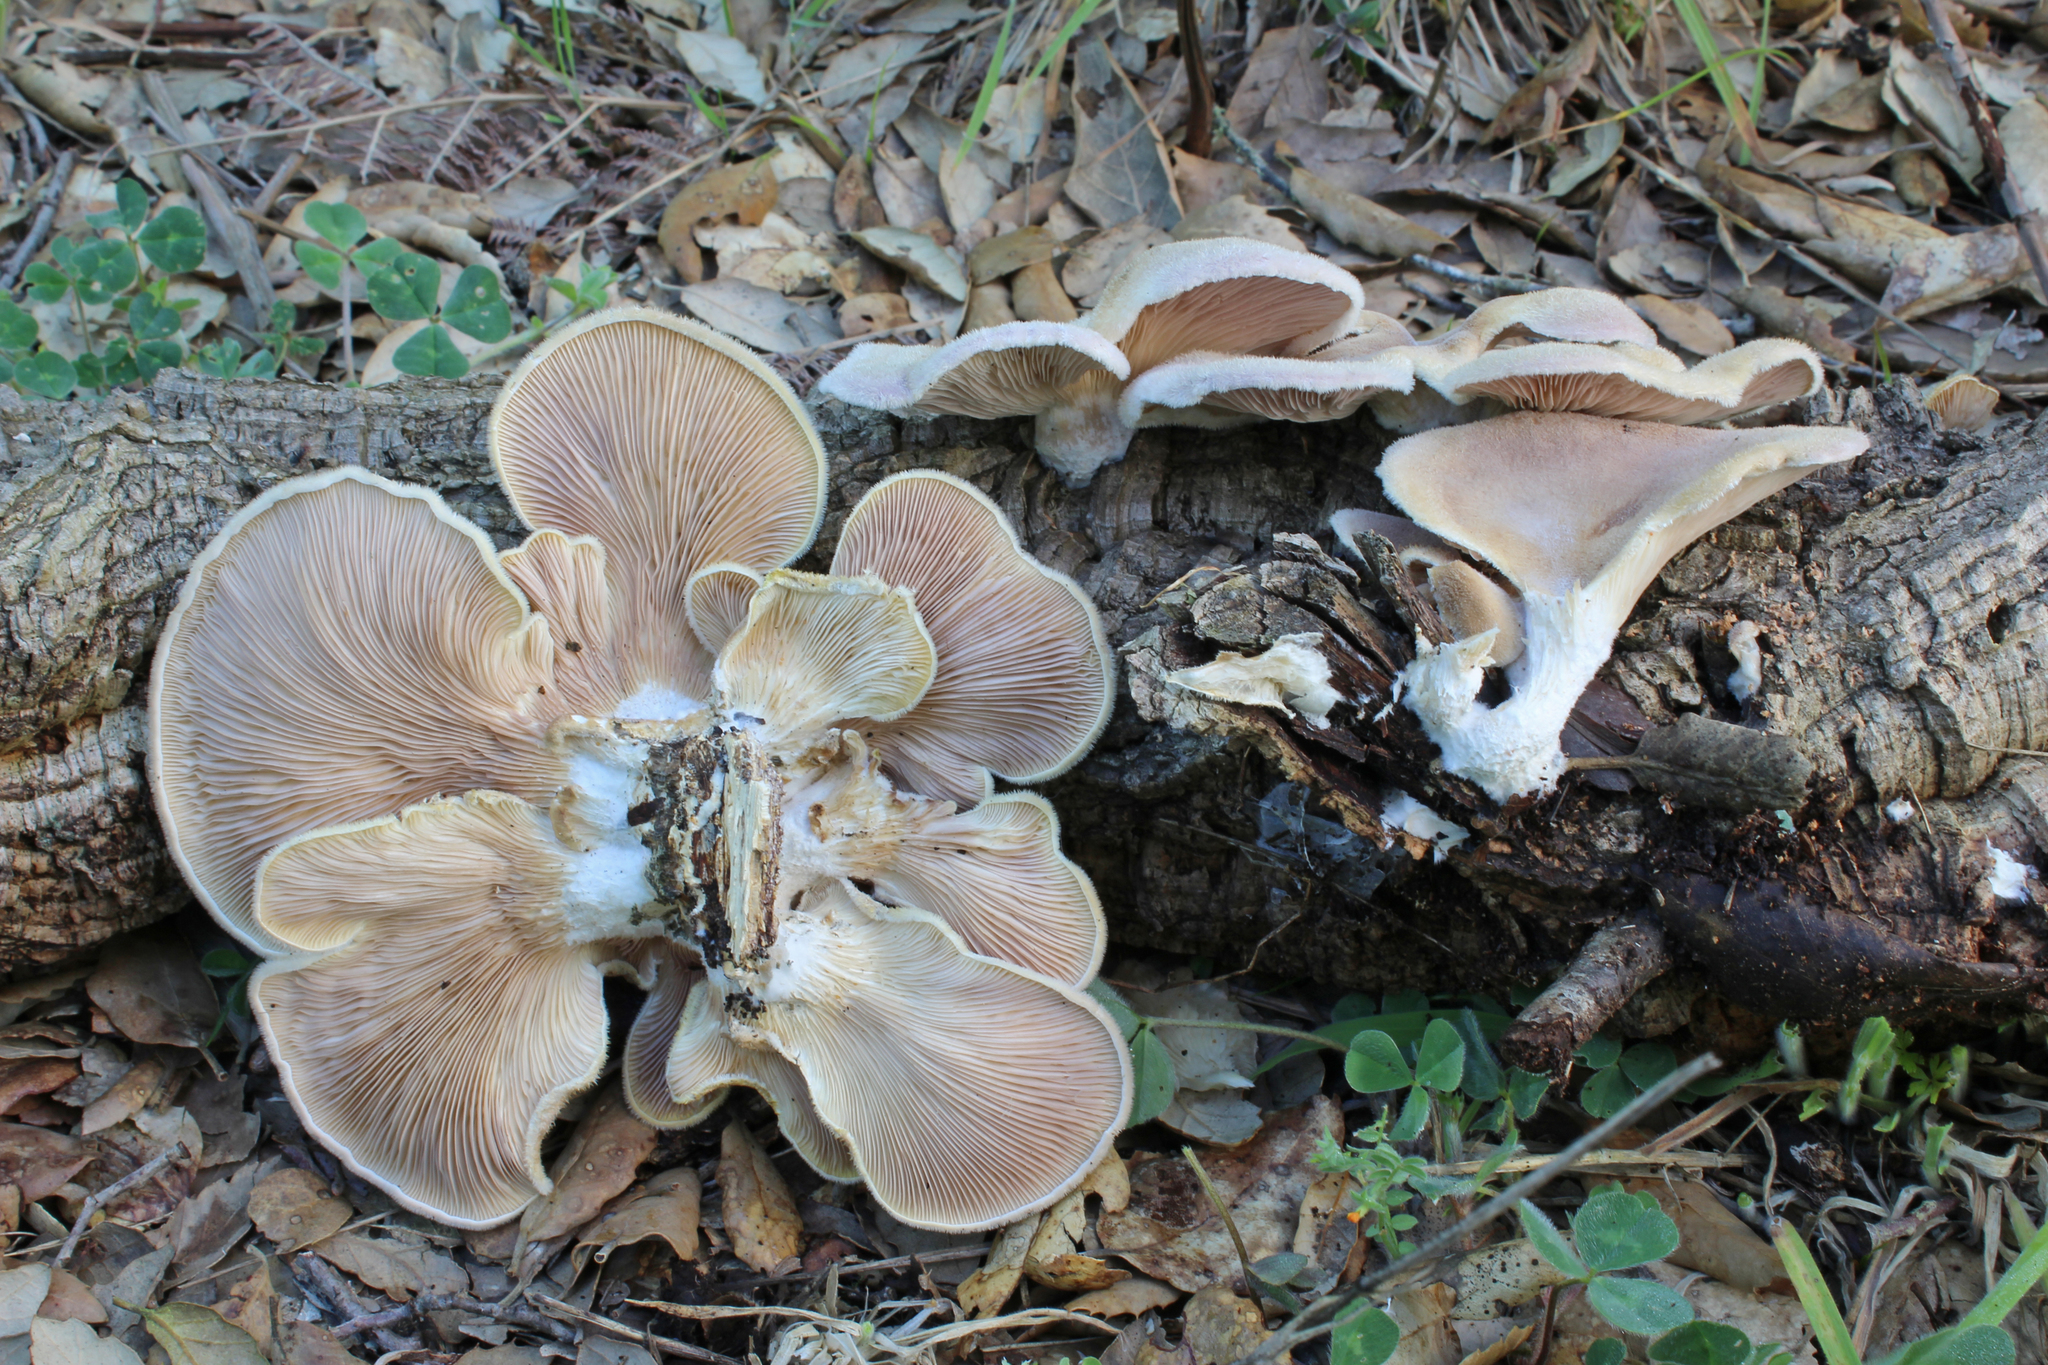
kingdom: Fungi
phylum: Basidiomycota
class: Agaricomycetes
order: Polyporales
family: Panaceae
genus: Panus
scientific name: Panus neostrigosus
